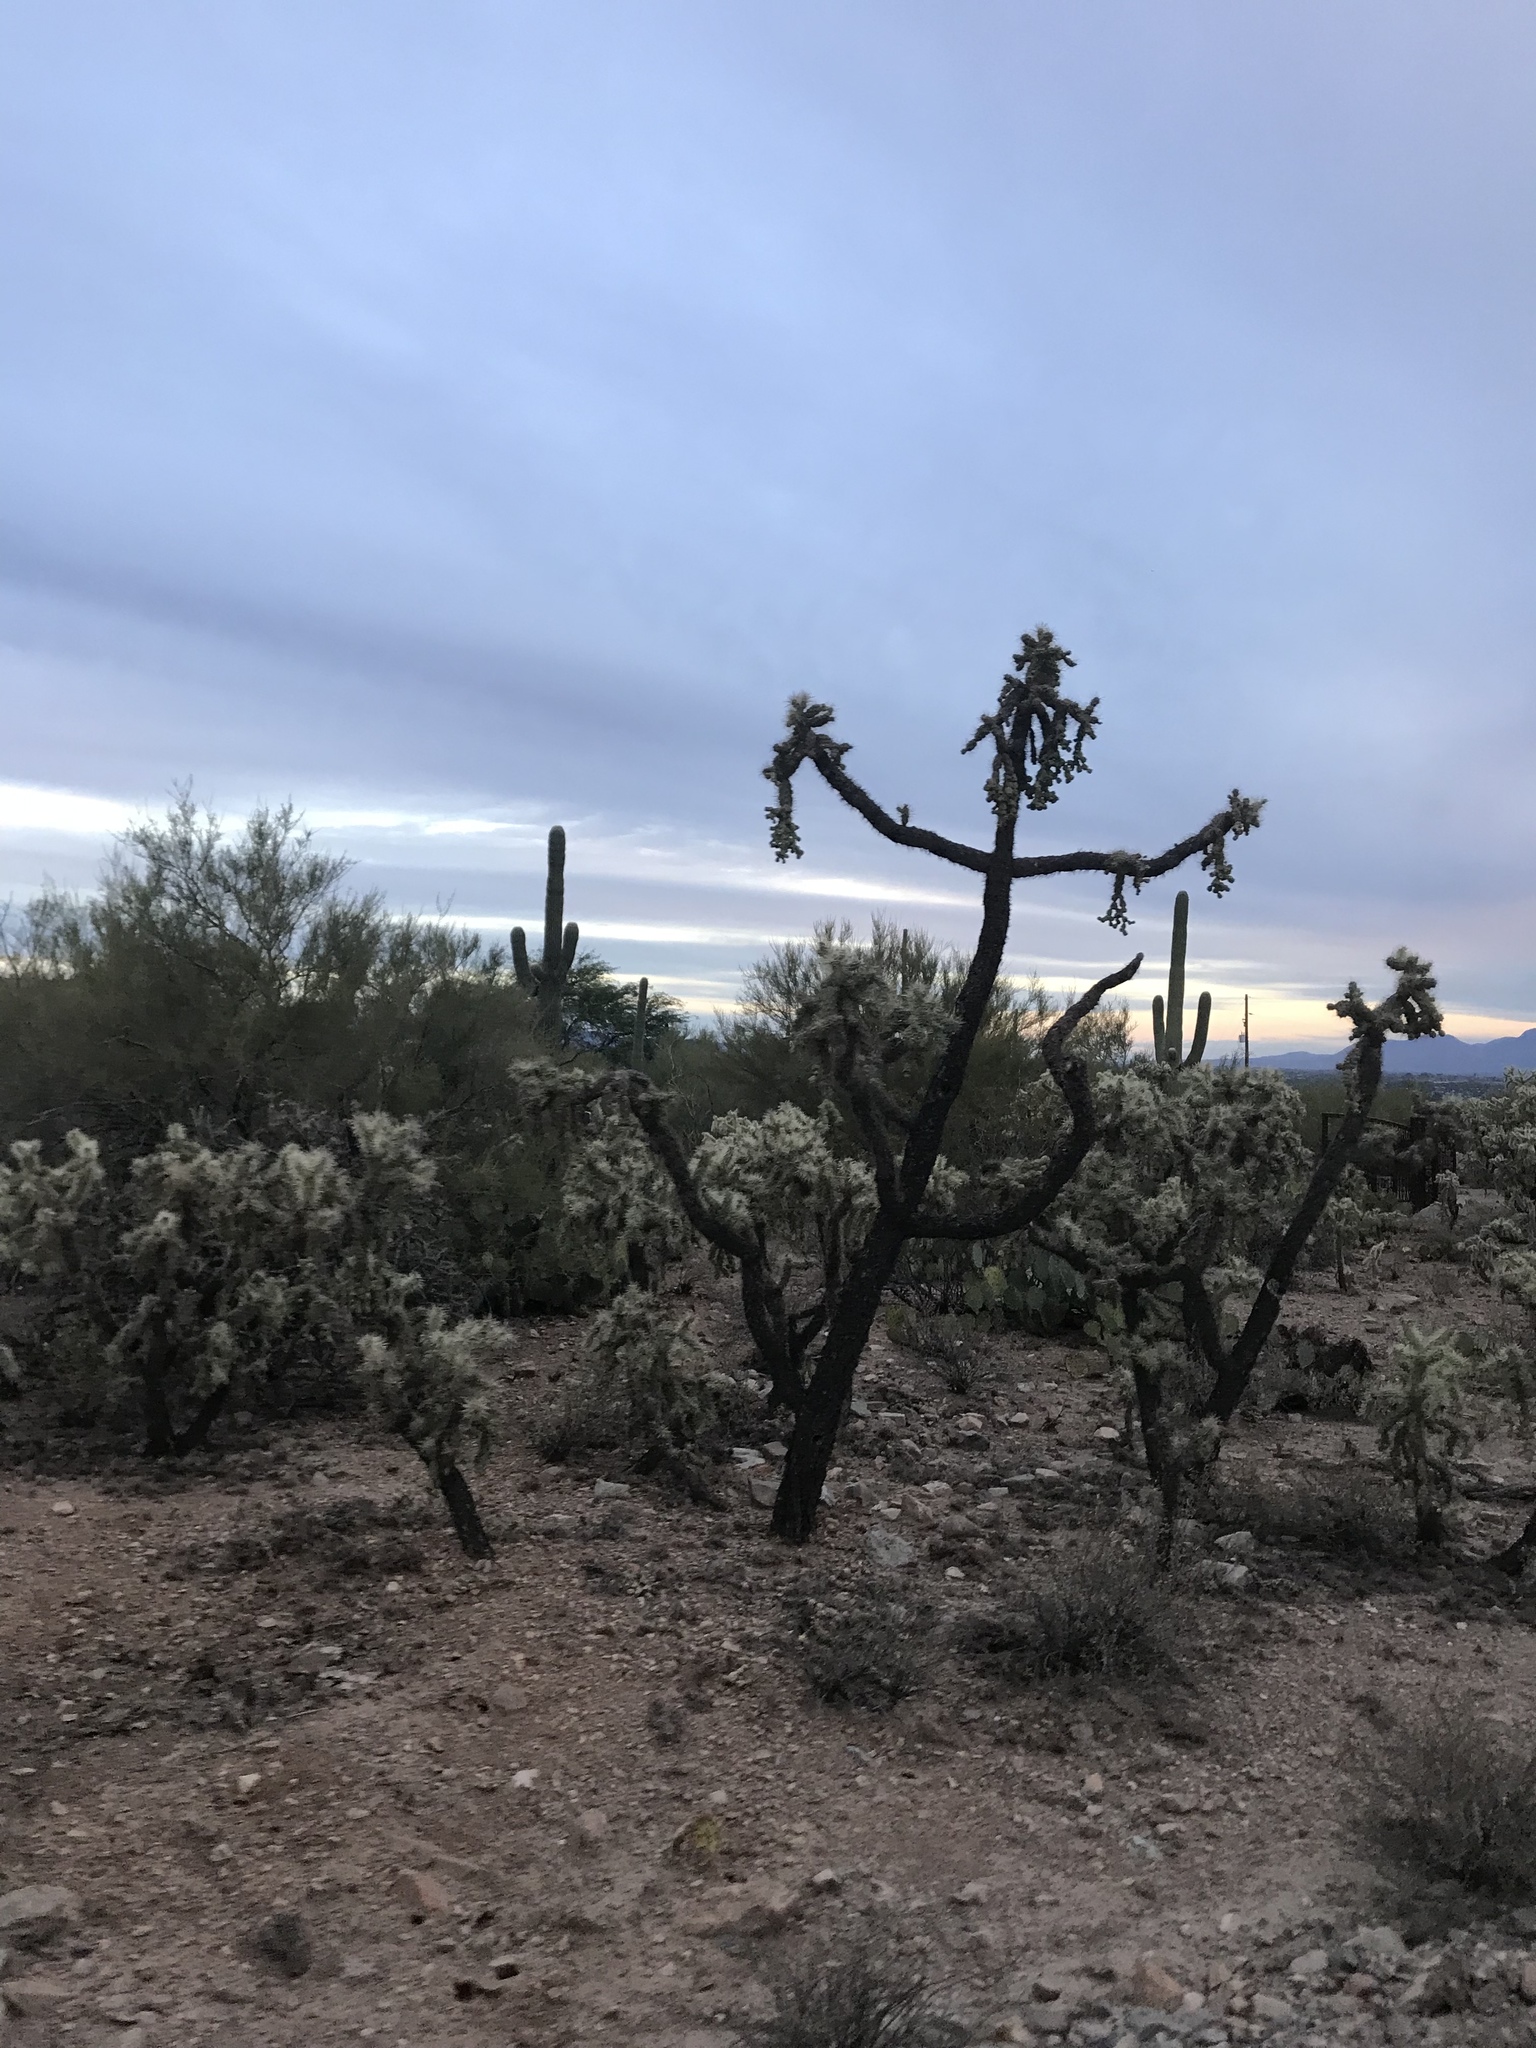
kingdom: Plantae
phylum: Tracheophyta
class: Magnoliopsida
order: Caryophyllales
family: Cactaceae
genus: Cylindropuntia
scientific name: Cylindropuntia fulgida
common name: Jumping cholla
